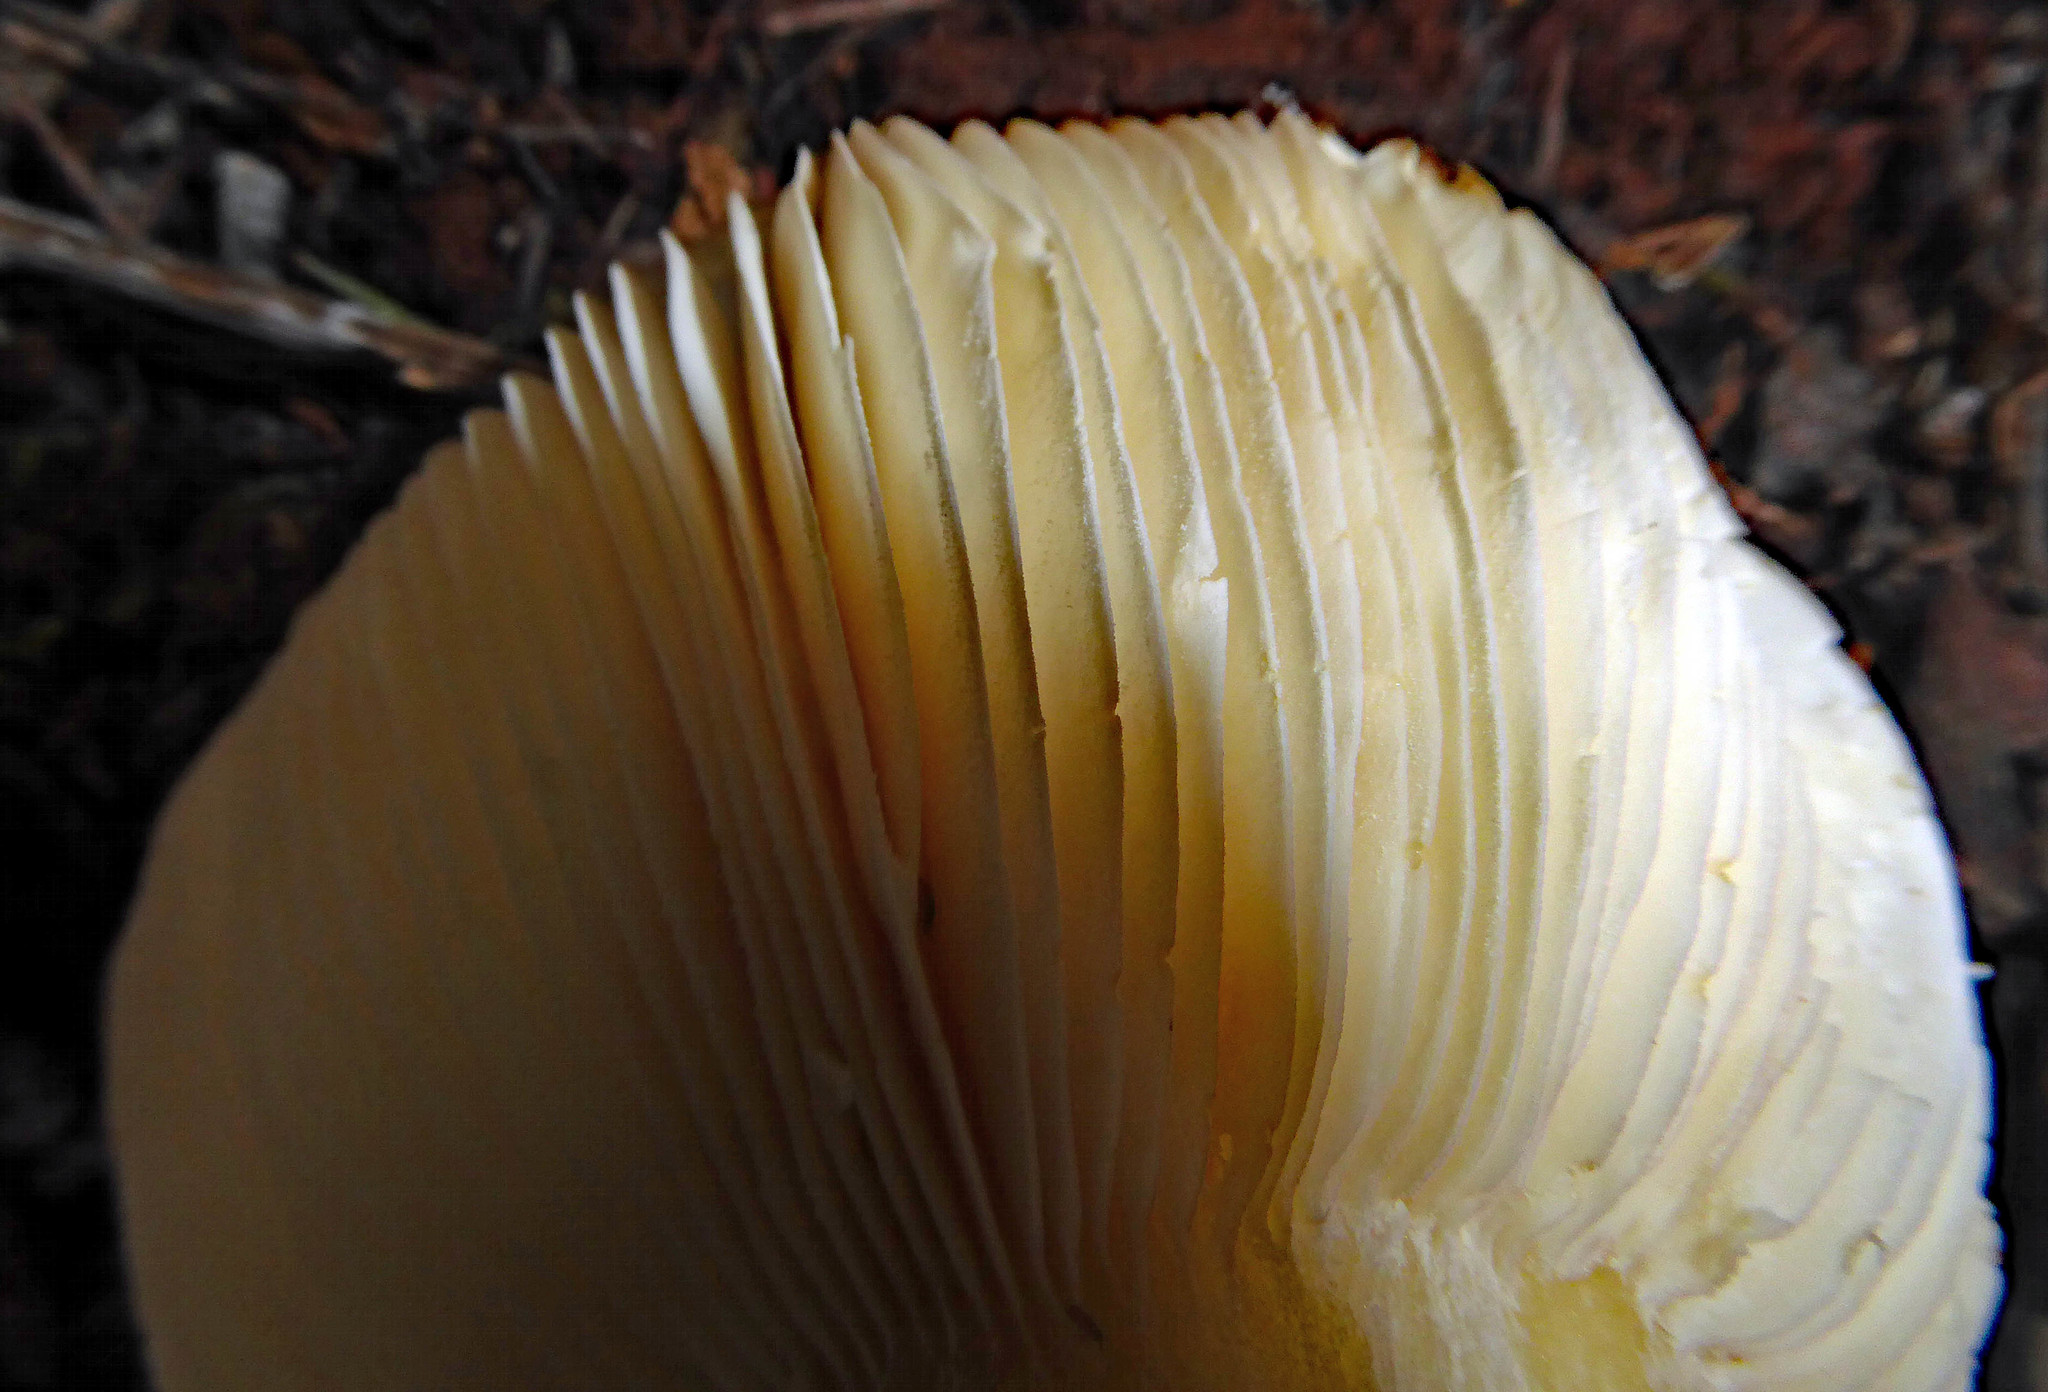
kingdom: Fungi
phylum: Basidiomycota
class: Agaricomycetes
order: Russulales
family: Russulaceae
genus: Russula
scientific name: Russula griseoviridis
